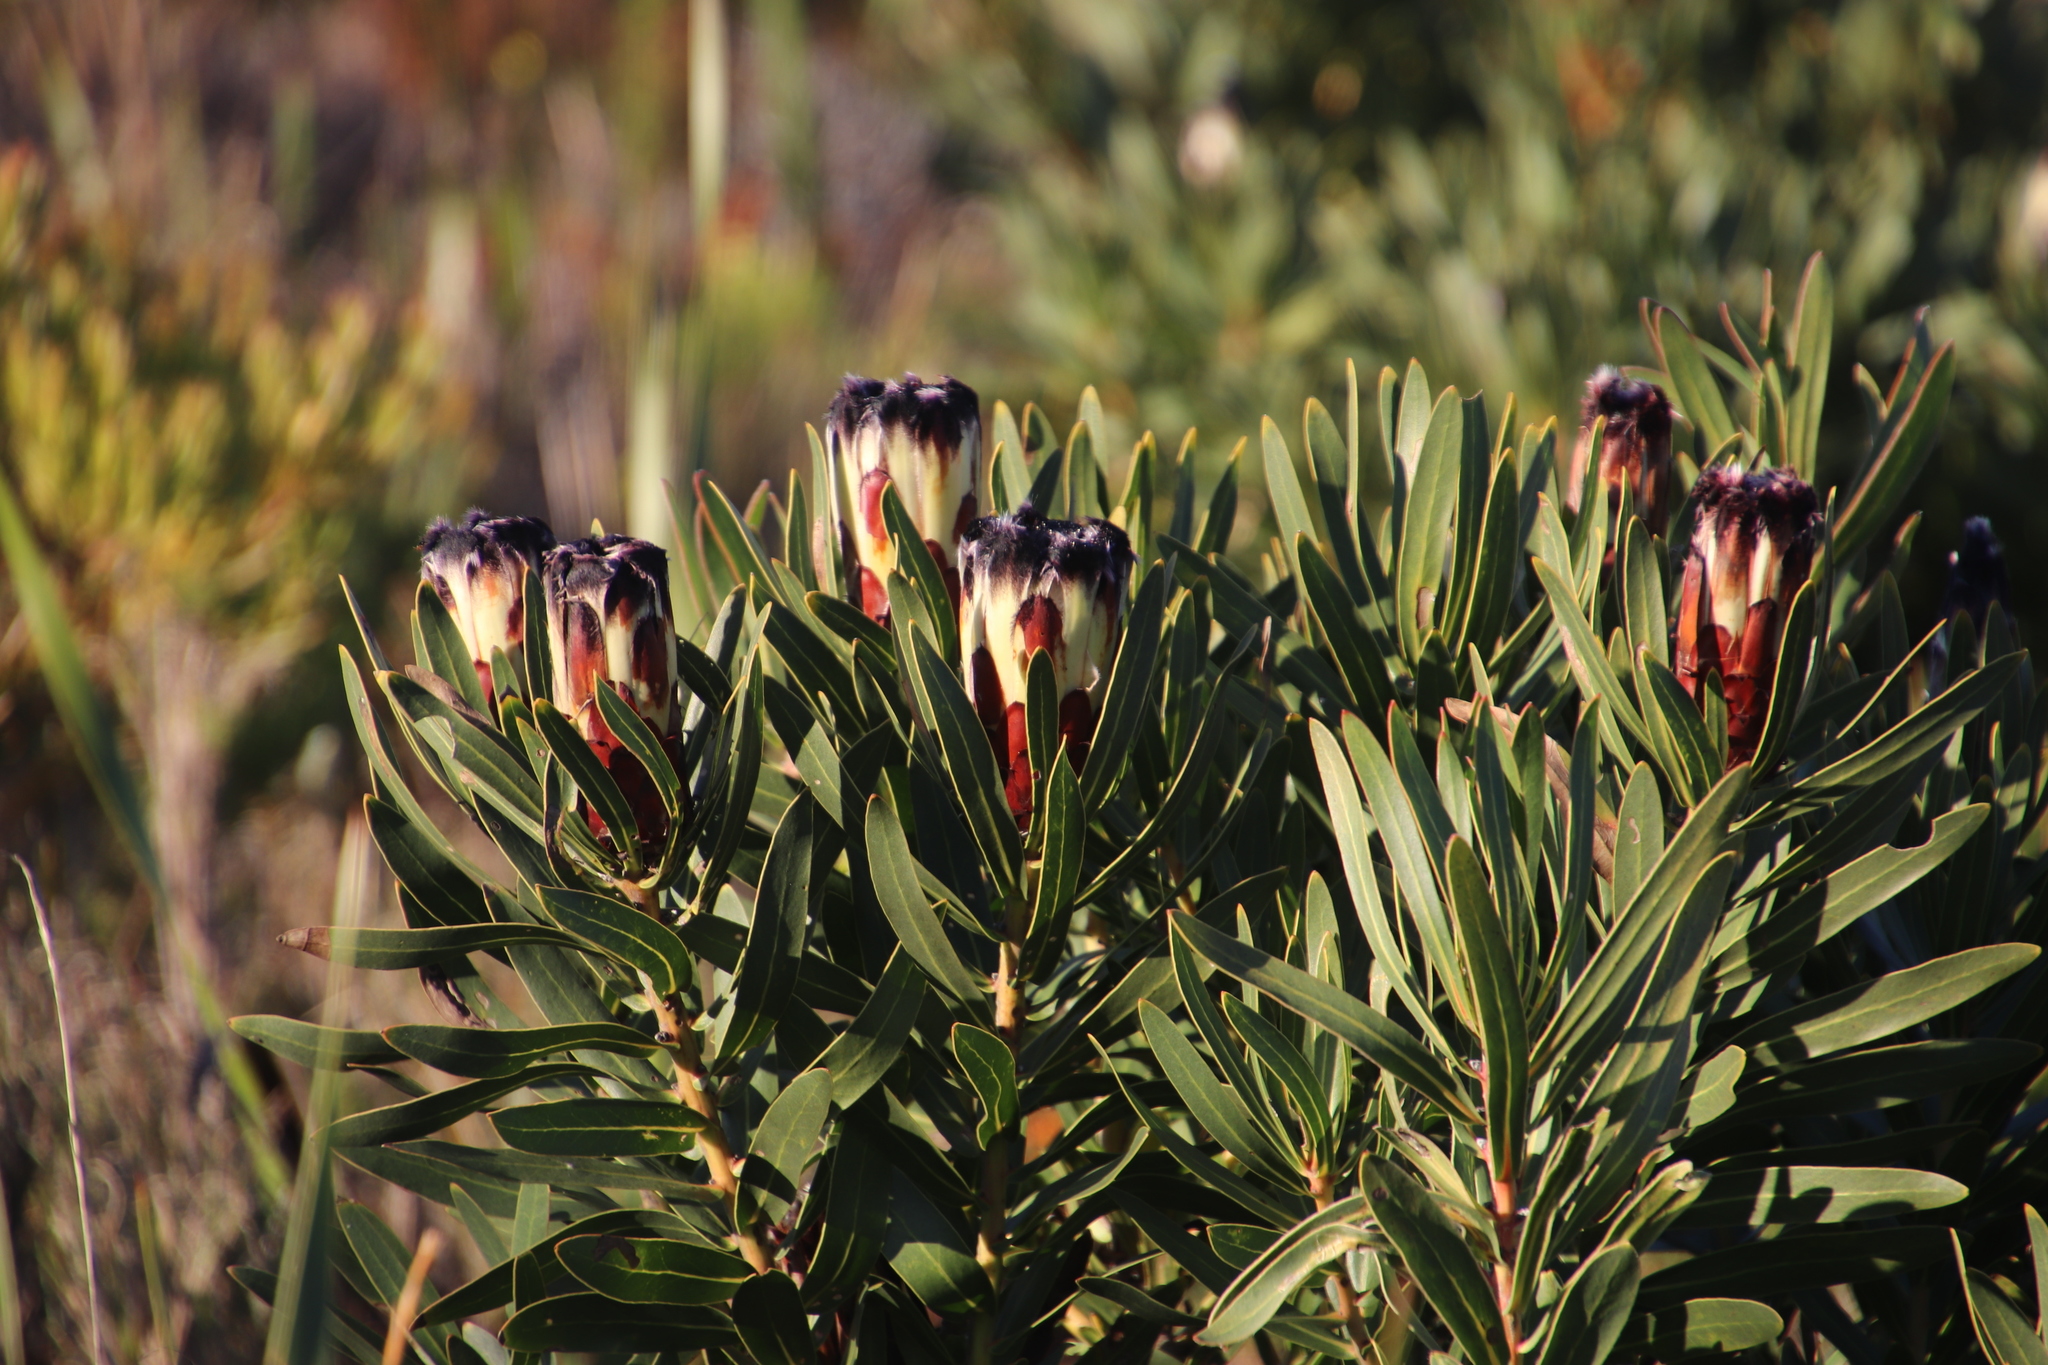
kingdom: Plantae
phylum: Tracheophyta
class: Magnoliopsida
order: Proteales
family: Proteaceae
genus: Protea
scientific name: Protea lepidocarpodendron
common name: Black-bearded protea
